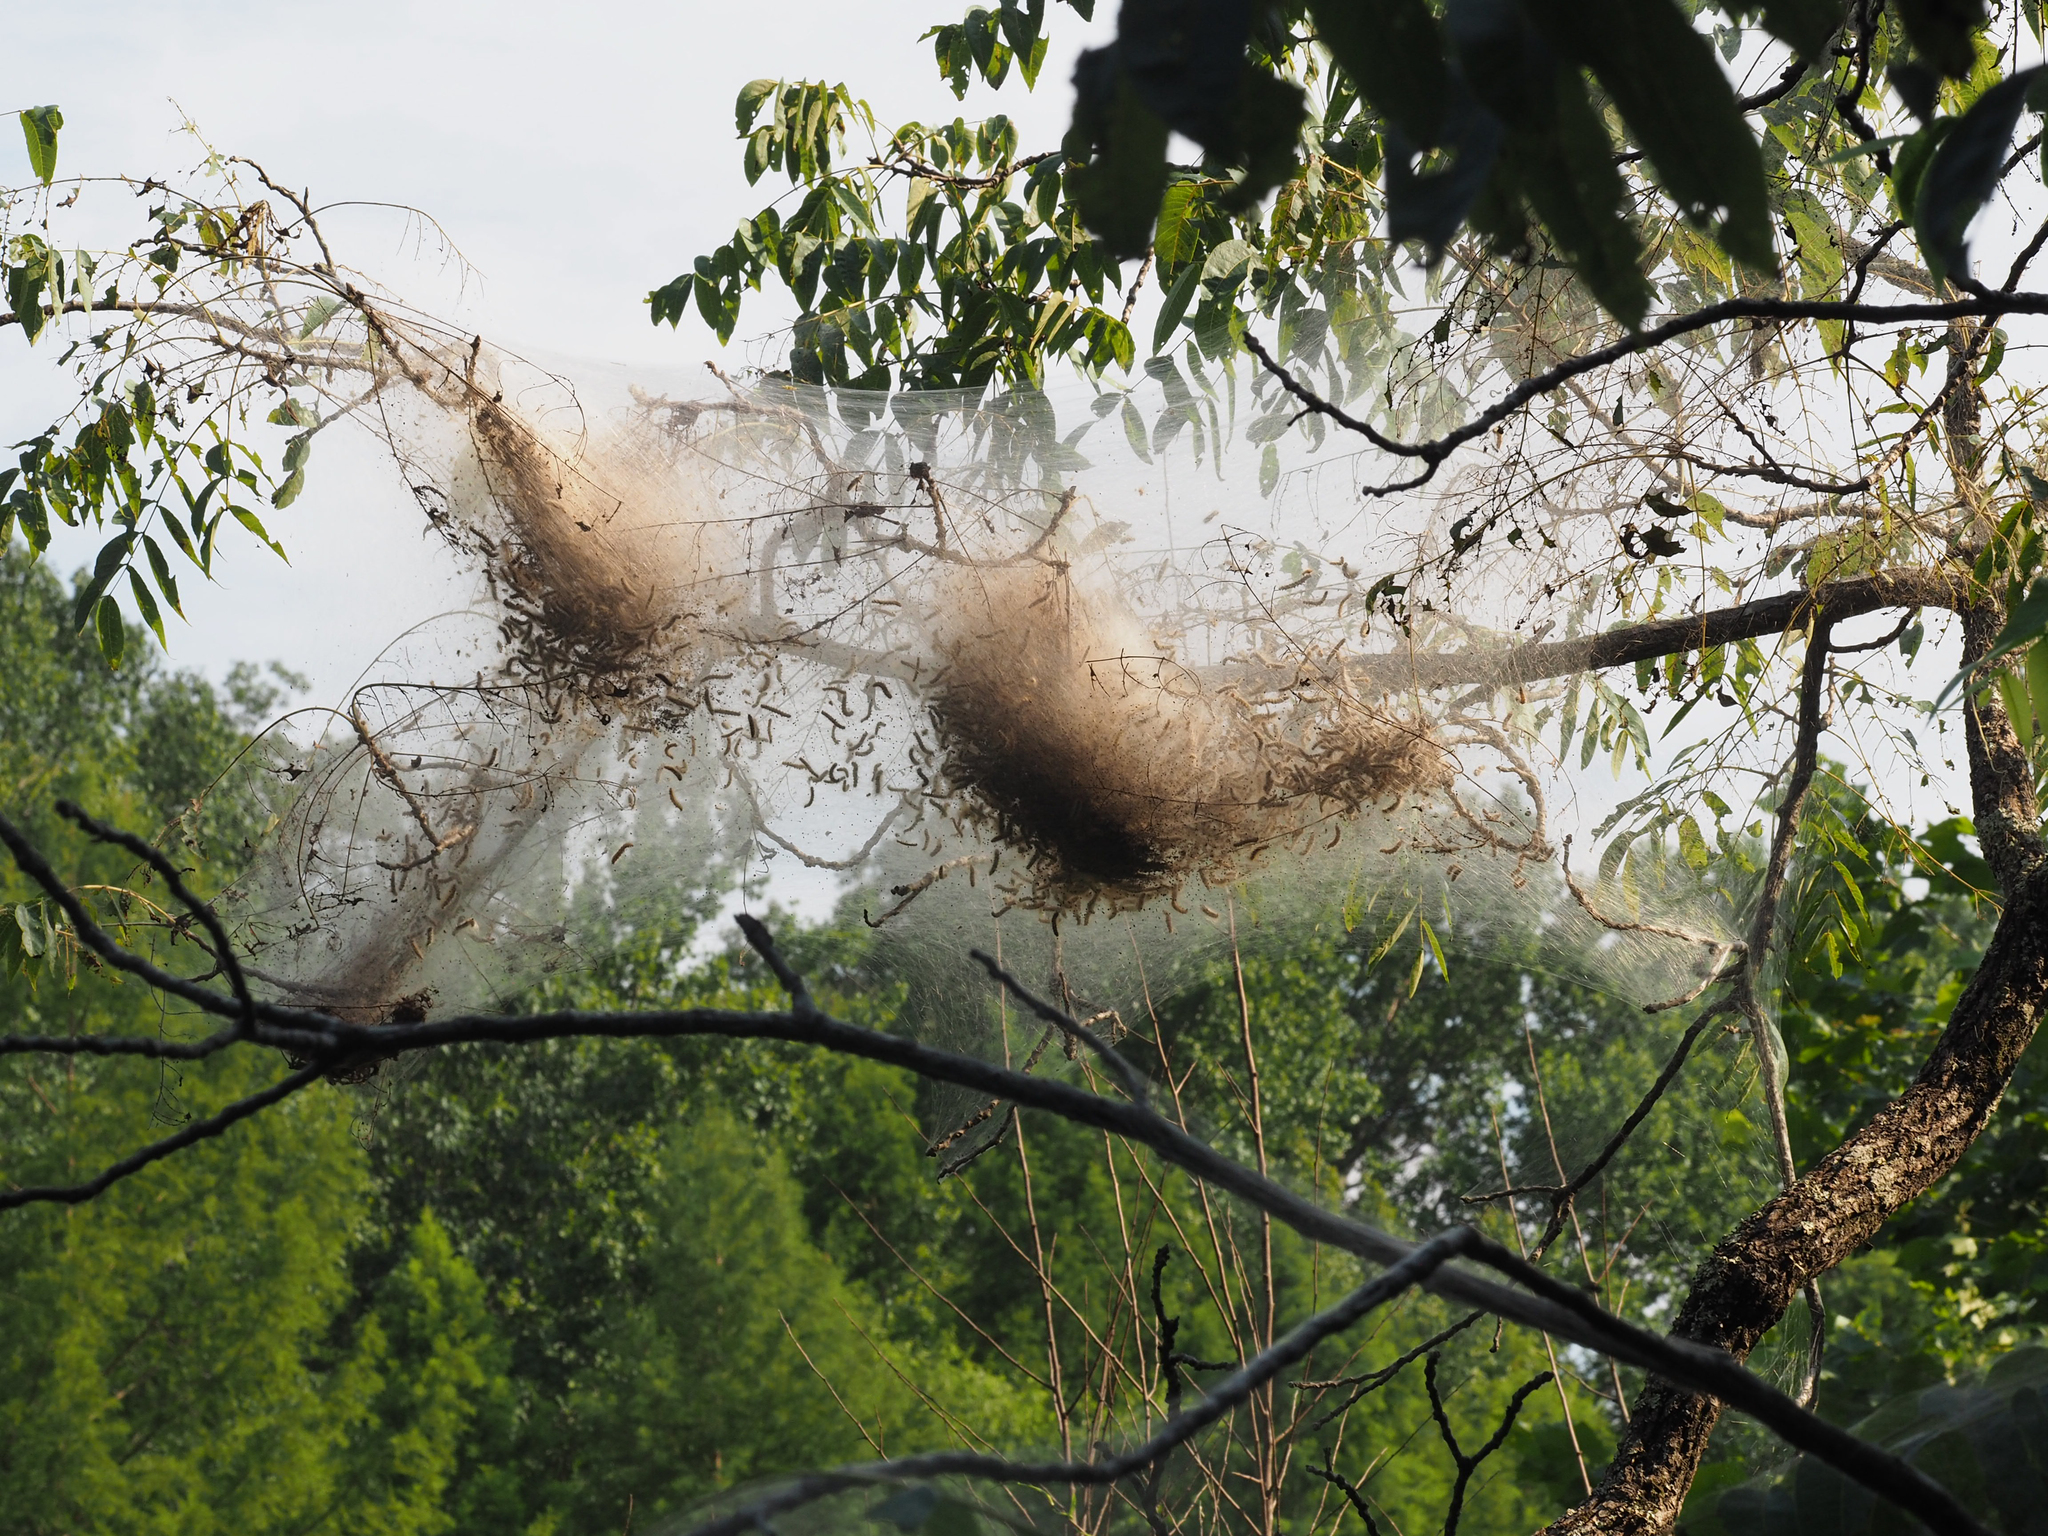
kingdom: Animalia
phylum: Arthropoda
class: Insecta
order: Lepidoptera
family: Erebidae
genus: Hyphantria
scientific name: Hyphantria cunea
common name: American white moth
